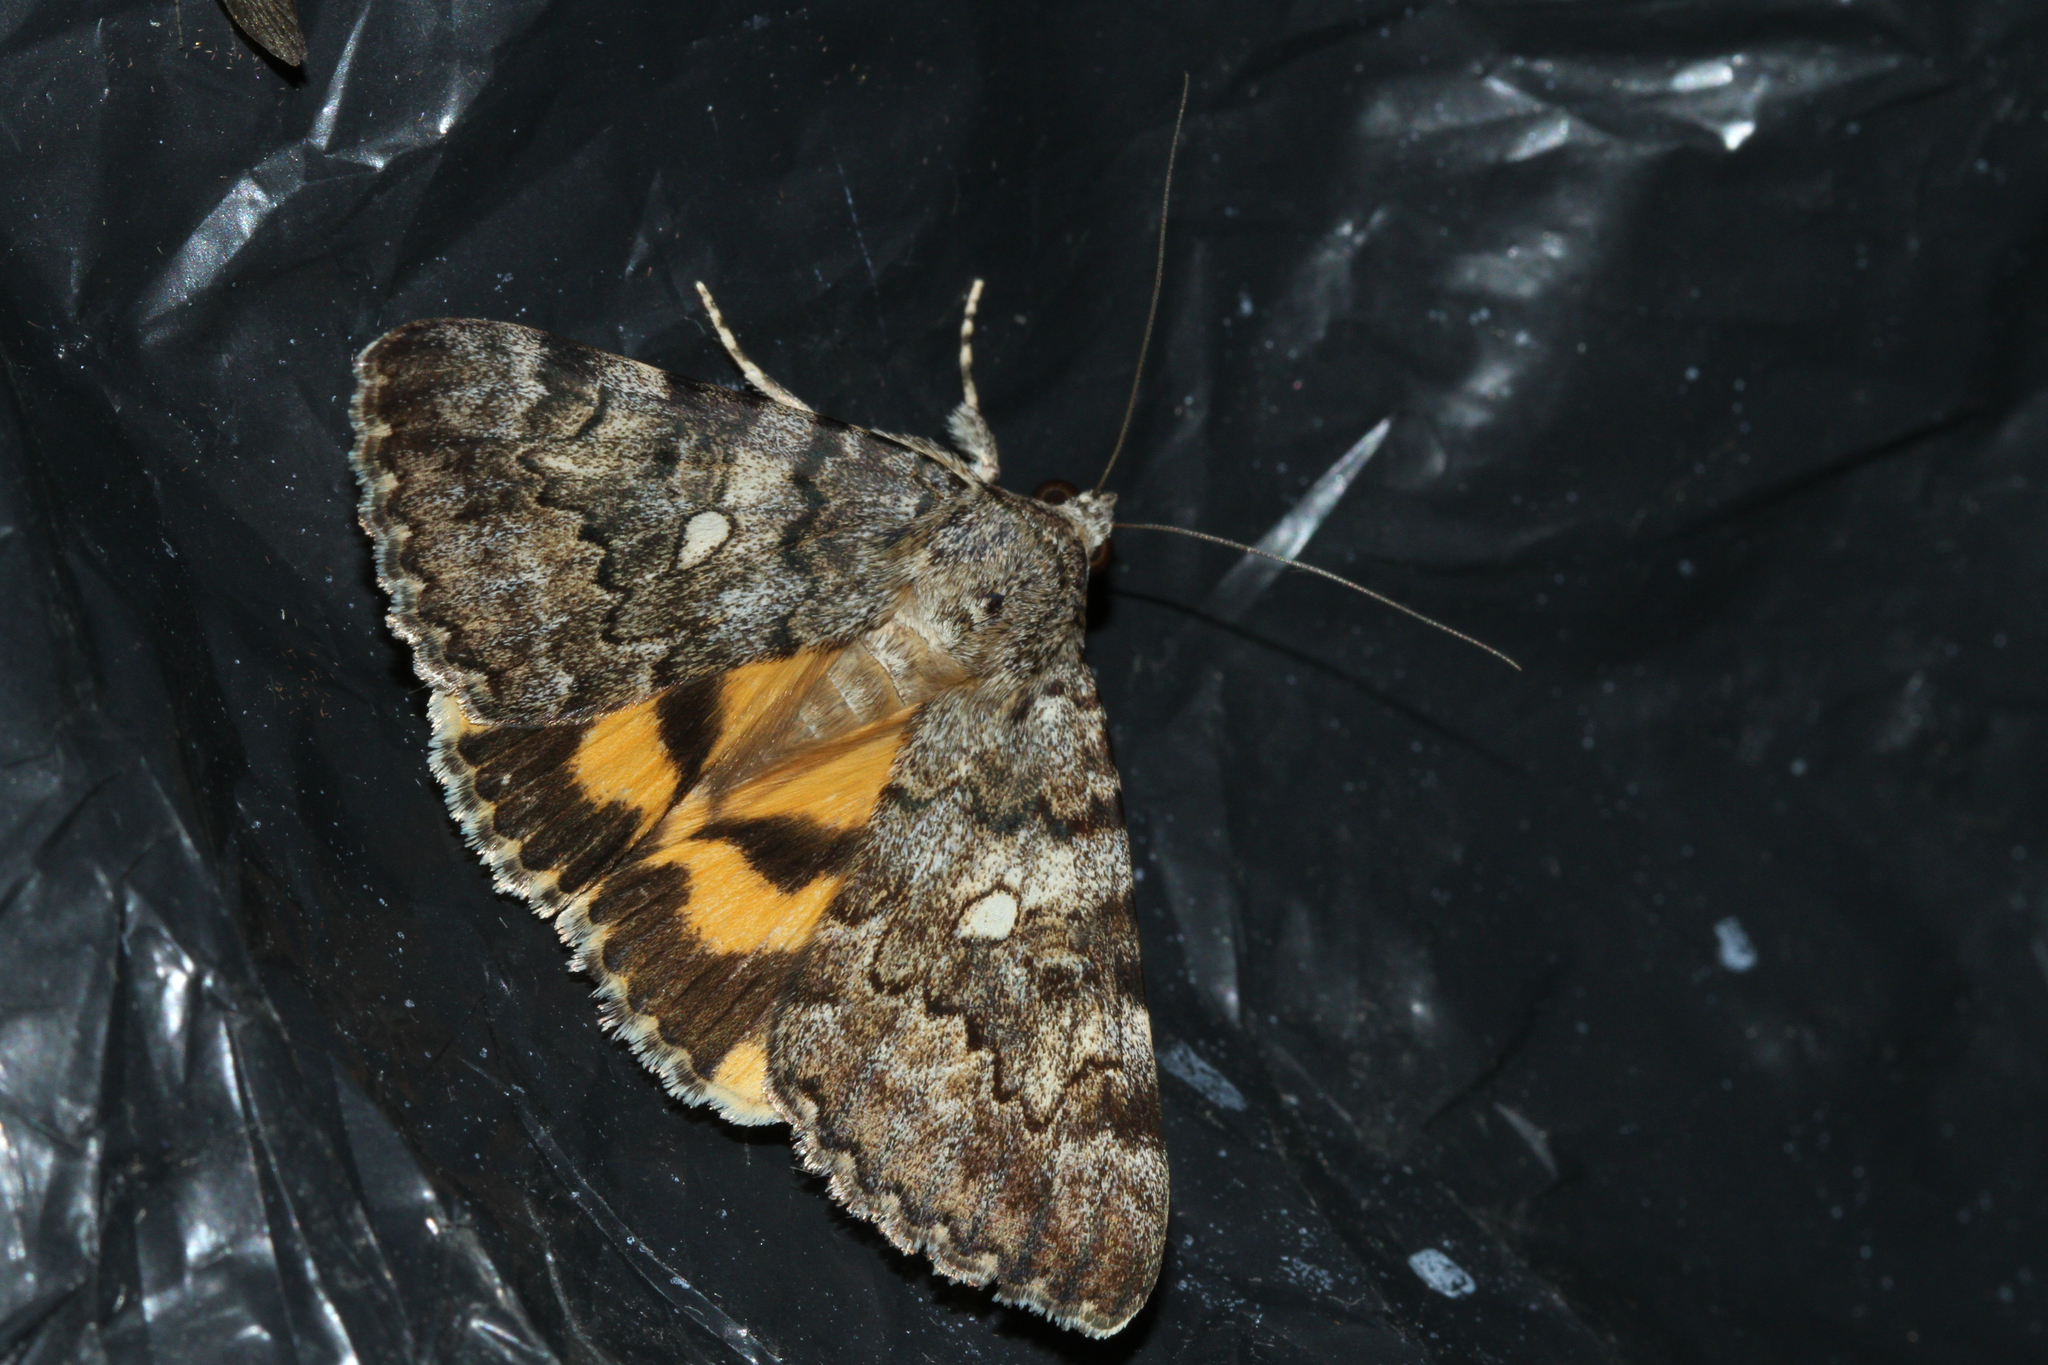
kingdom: Animalia
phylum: Arthropoda
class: Insecta
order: Lepidoptera
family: Erebidae
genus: Catocala
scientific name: Catocala nymphaea
